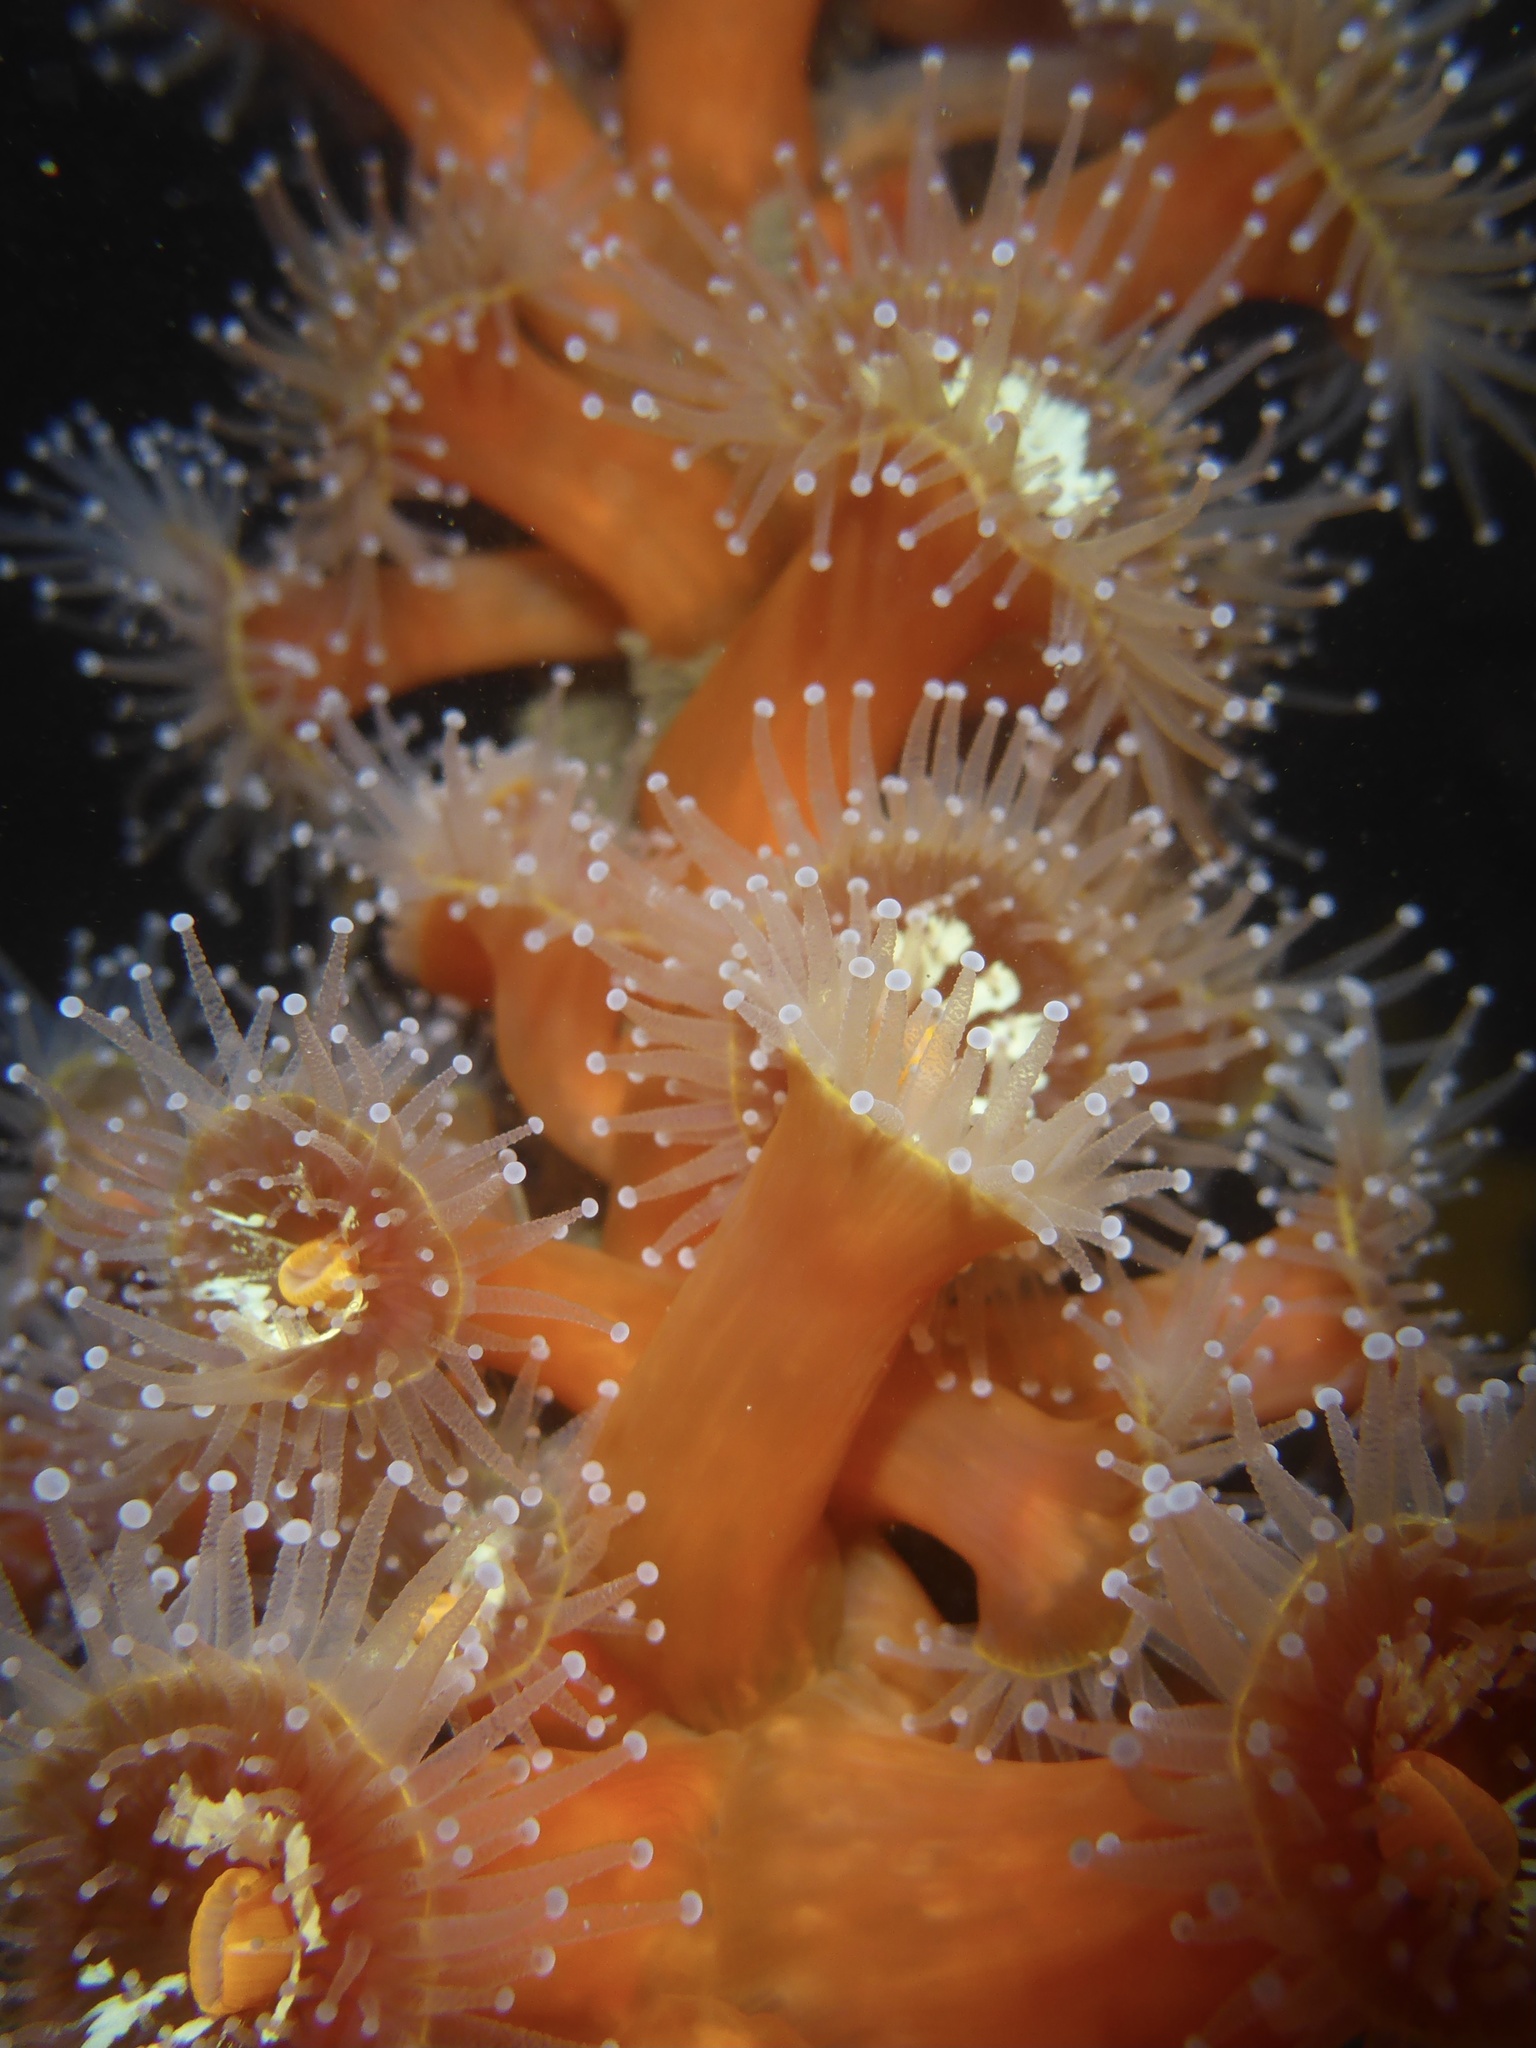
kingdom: Animalia
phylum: Cnidaria
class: Anthozoa
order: Corallimorpharia
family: Corallimorphidae
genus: Corynactis
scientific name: Corynactis californica
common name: Strawberry corallimorpharian
